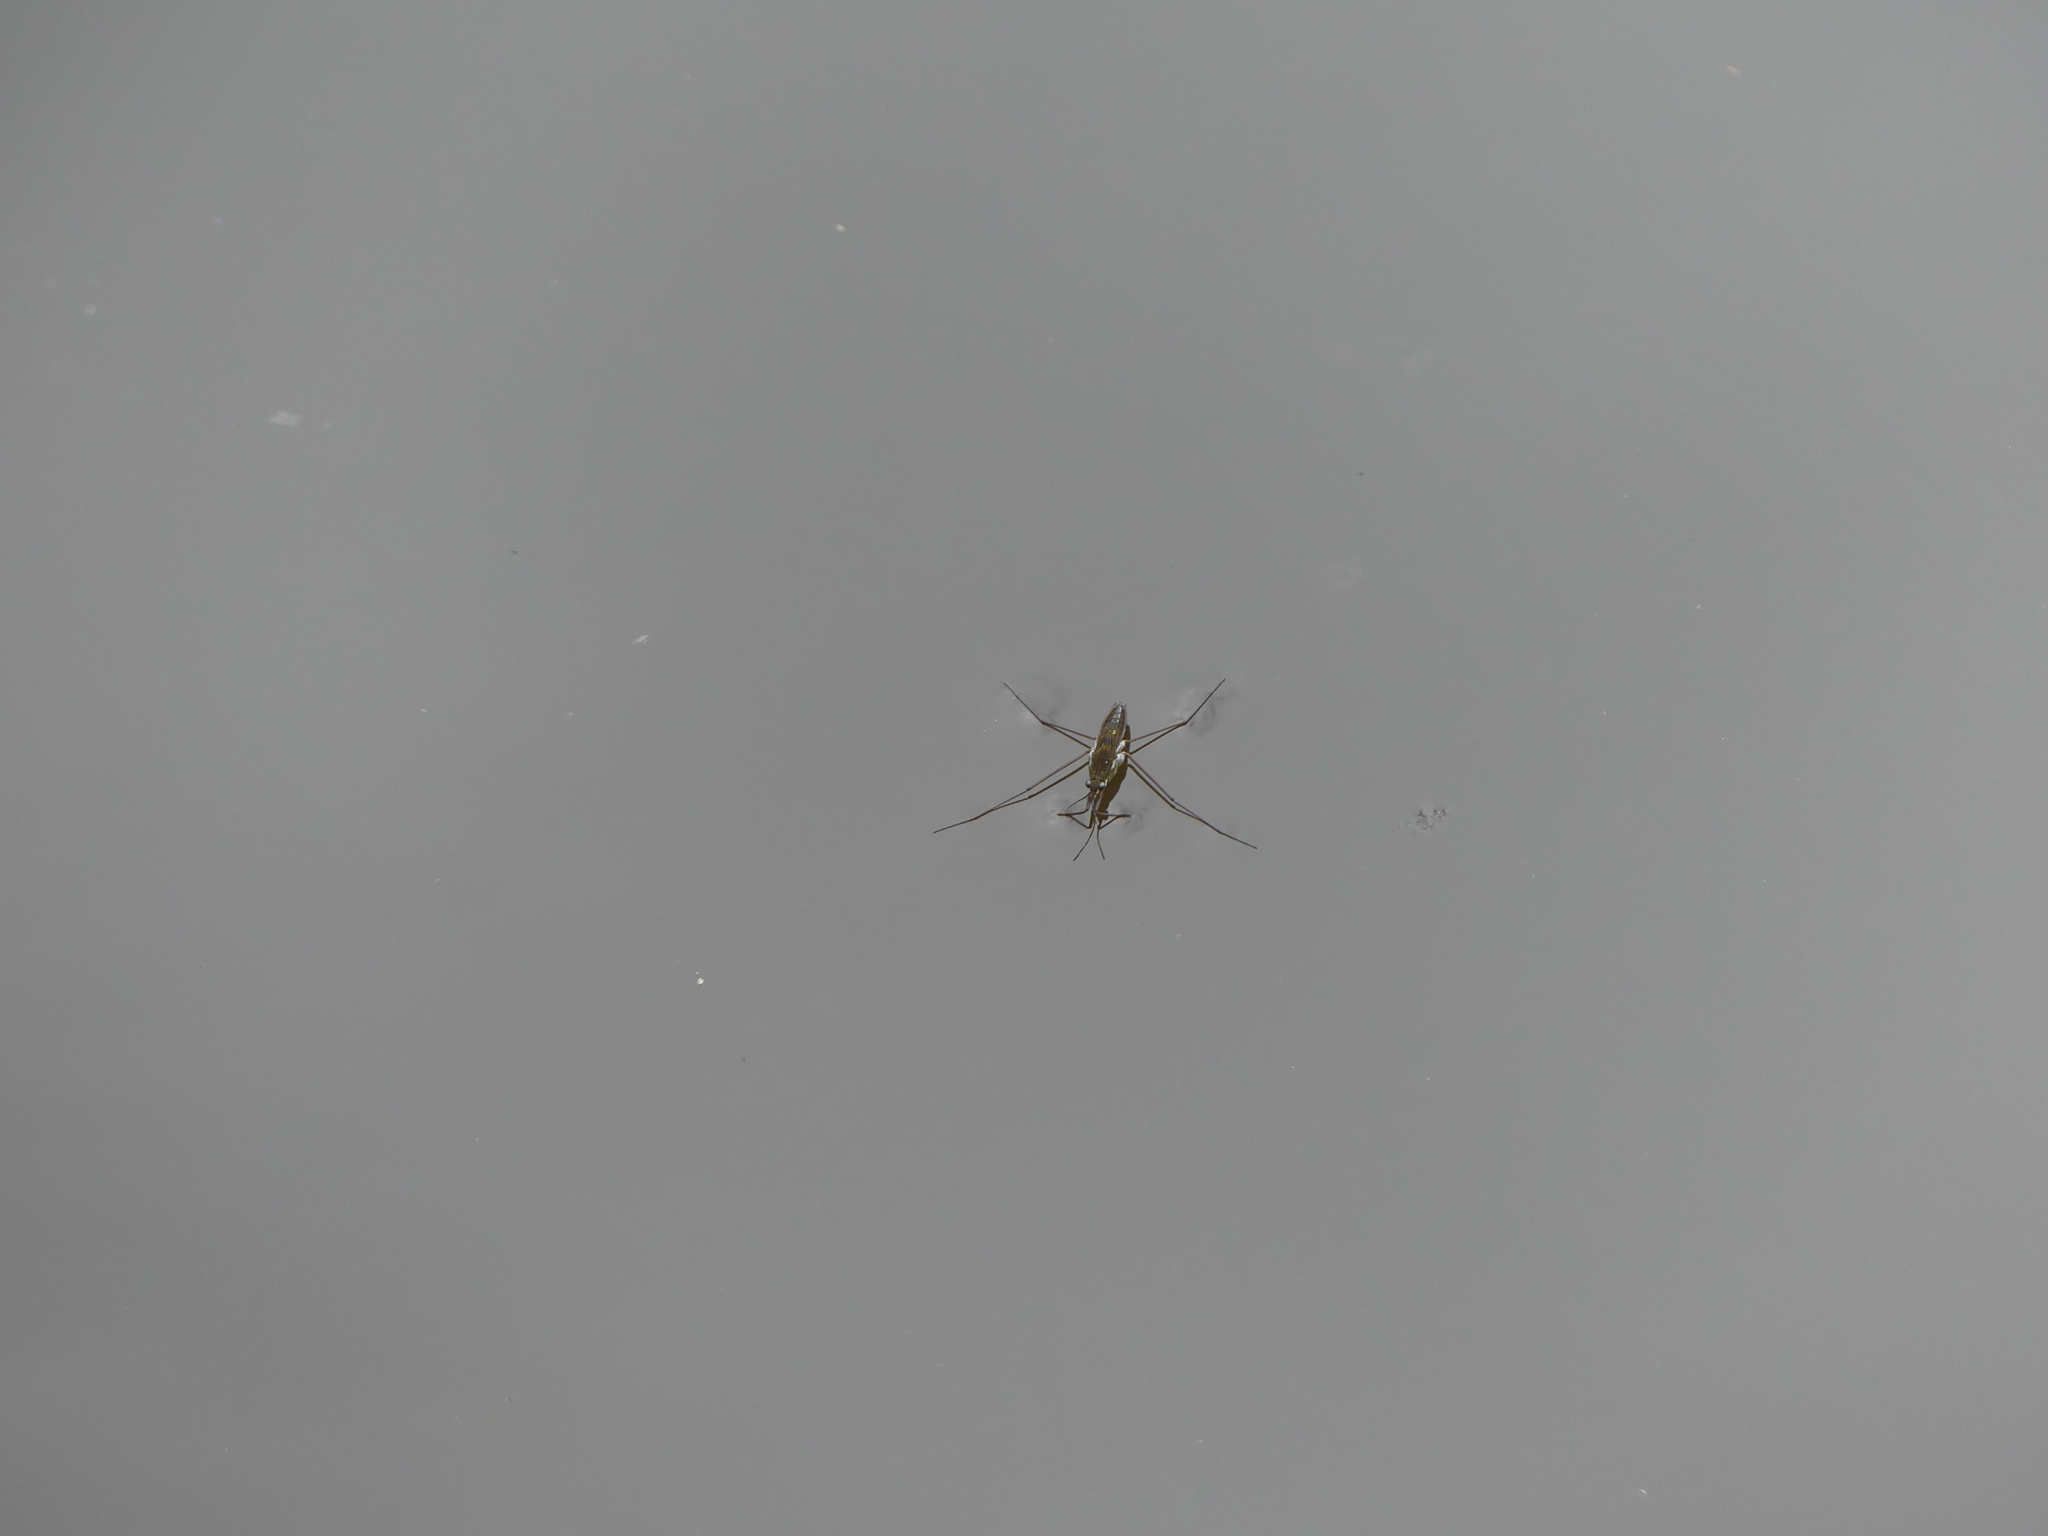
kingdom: Animalia
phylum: Arthropoda
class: Insecta
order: Hemiptera
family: Gerridae
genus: Gerris
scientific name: Gerris
